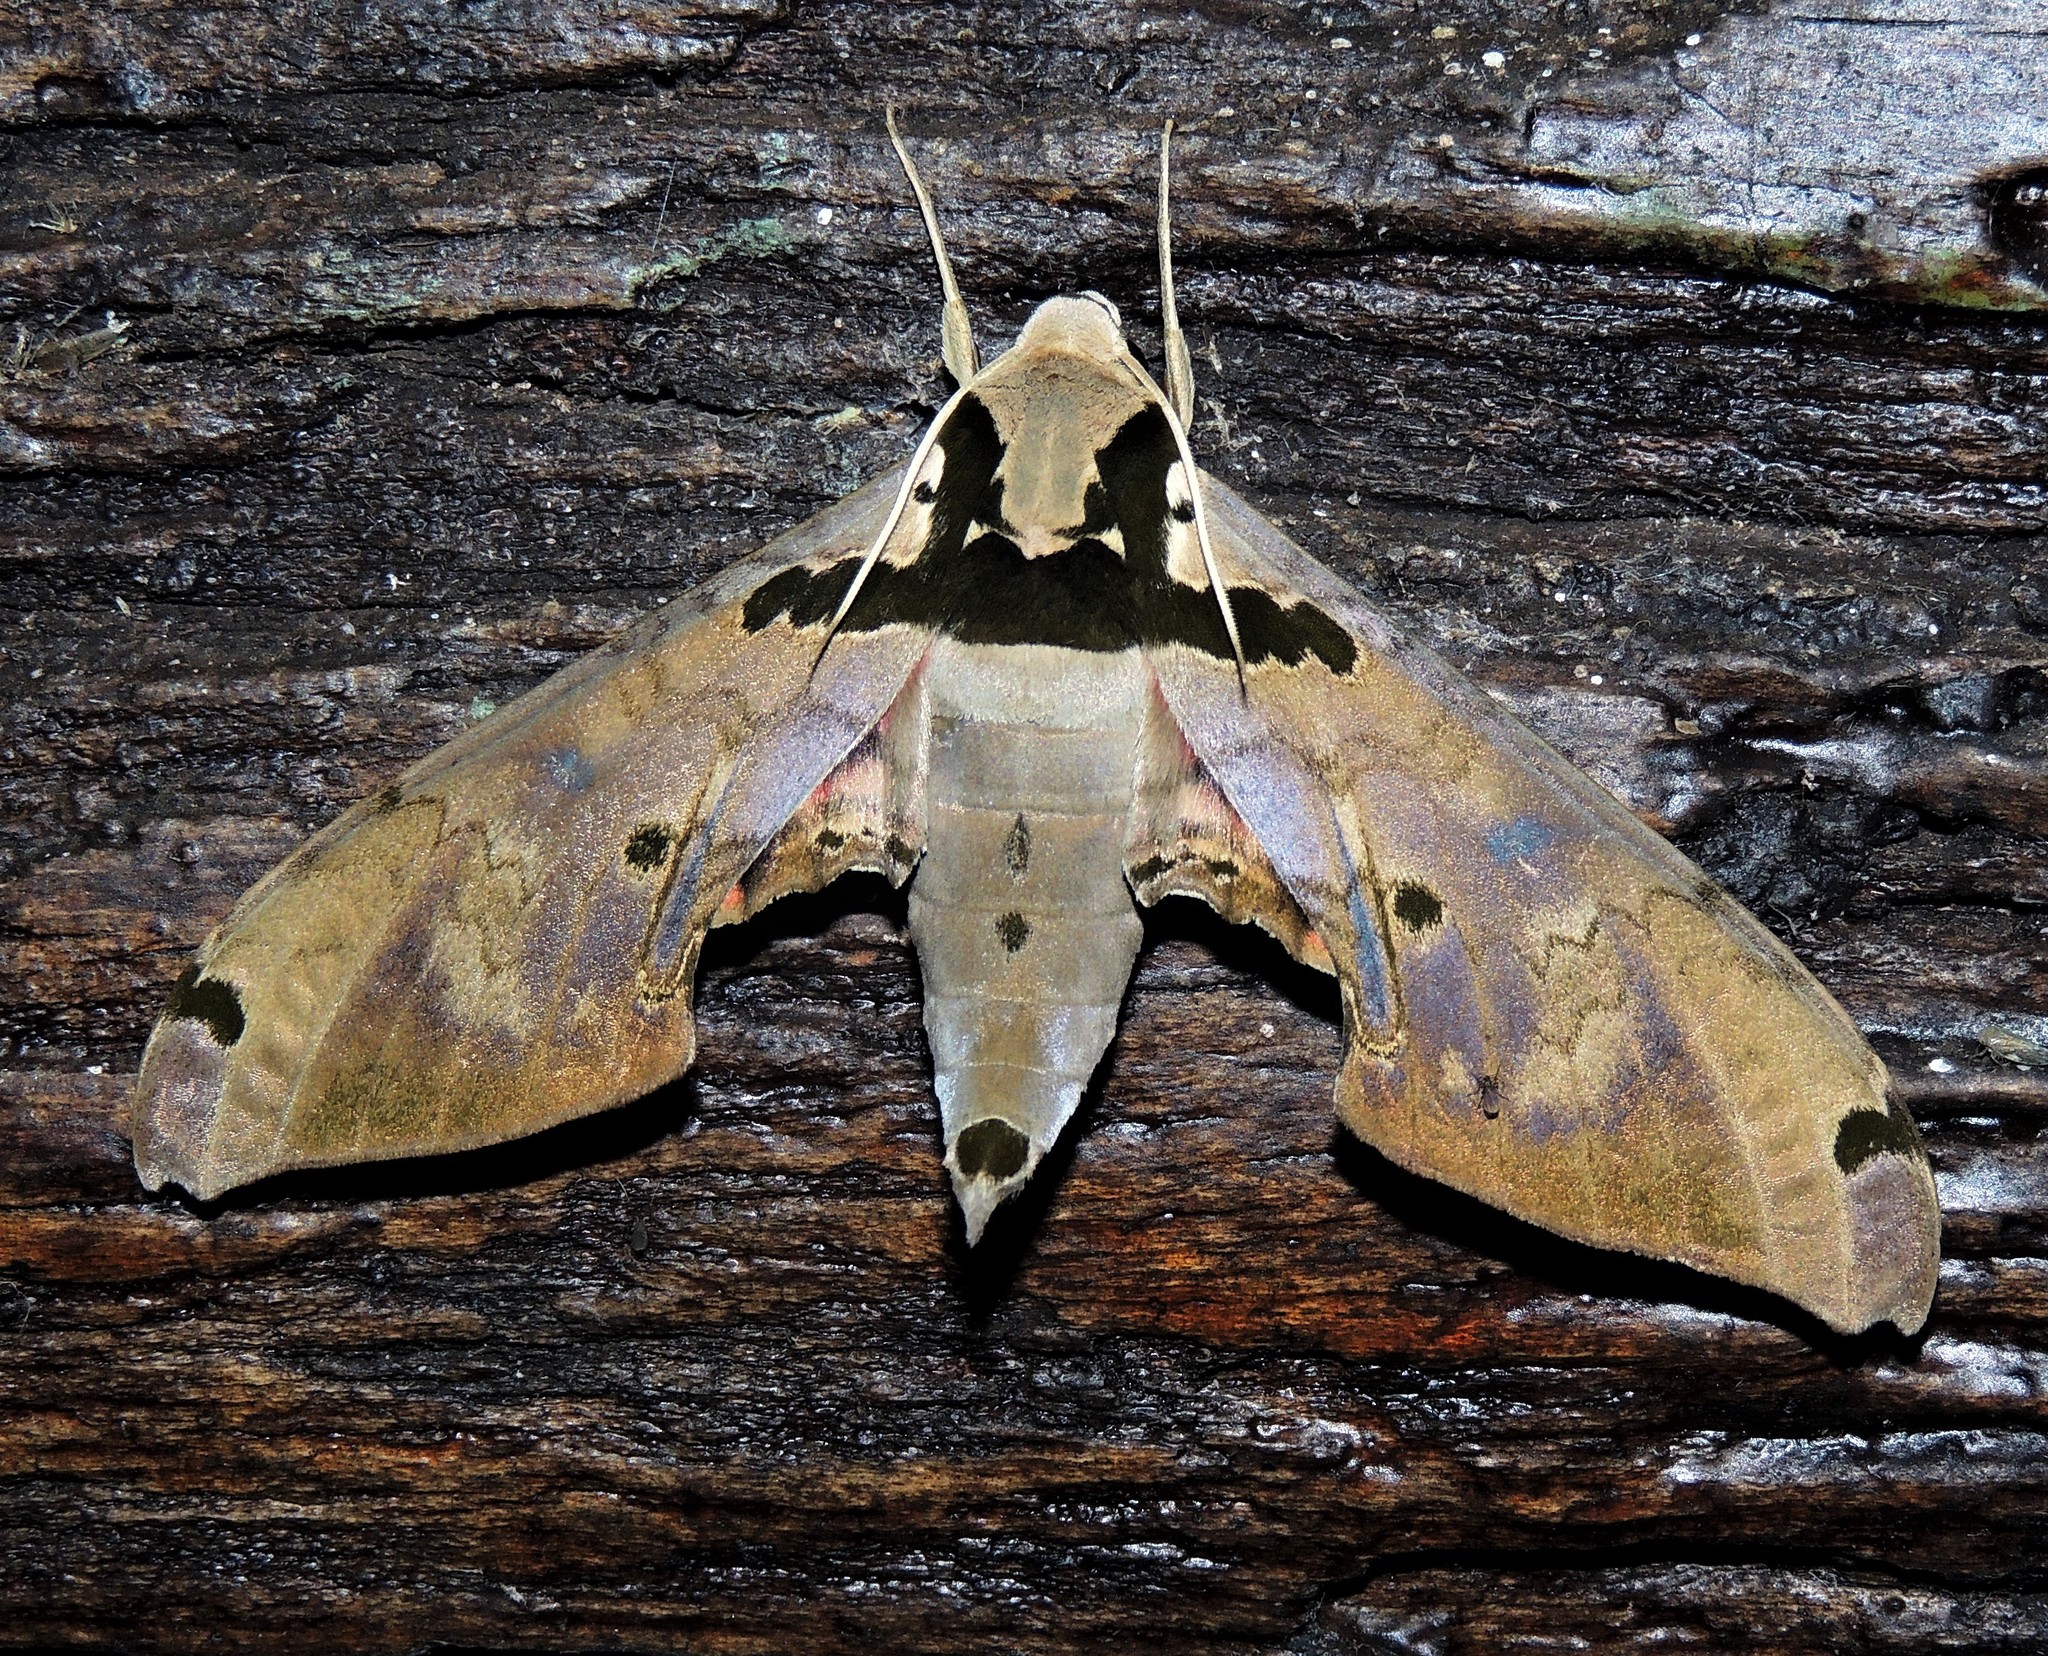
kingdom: Animalia
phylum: Arthropoda
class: Insecta
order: Lepidoptera
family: Sphingidae
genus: Adhemarius
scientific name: Adhemarius daphne
